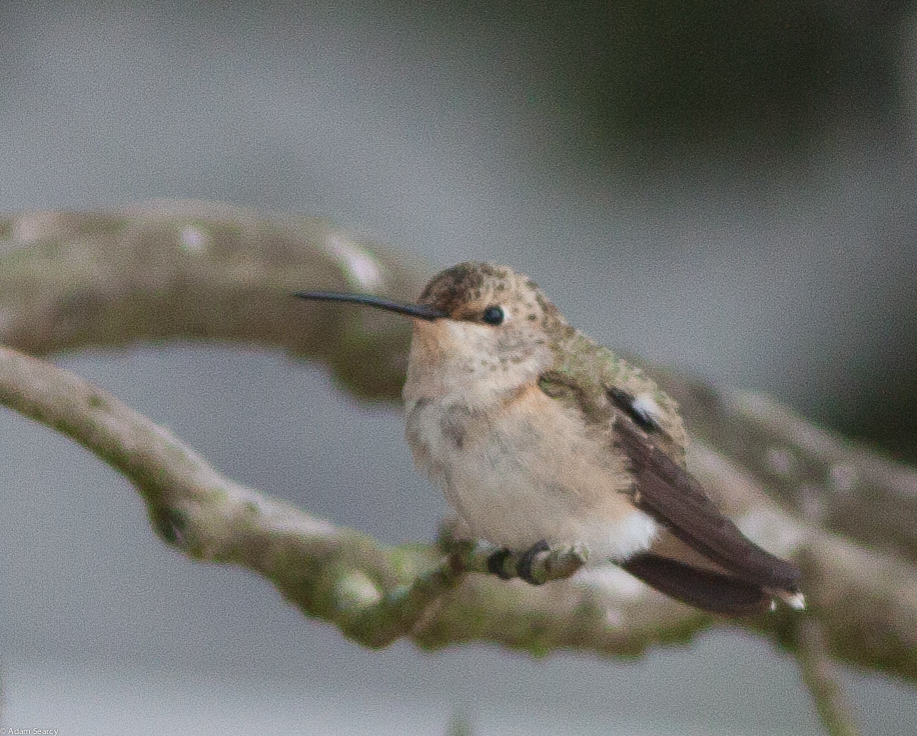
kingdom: Animalia
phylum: Chordata
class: Aves
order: Apodiformes
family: Trochilidae
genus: Archilochus
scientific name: Archilochus alexandri
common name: Black-chinned hummingbird
